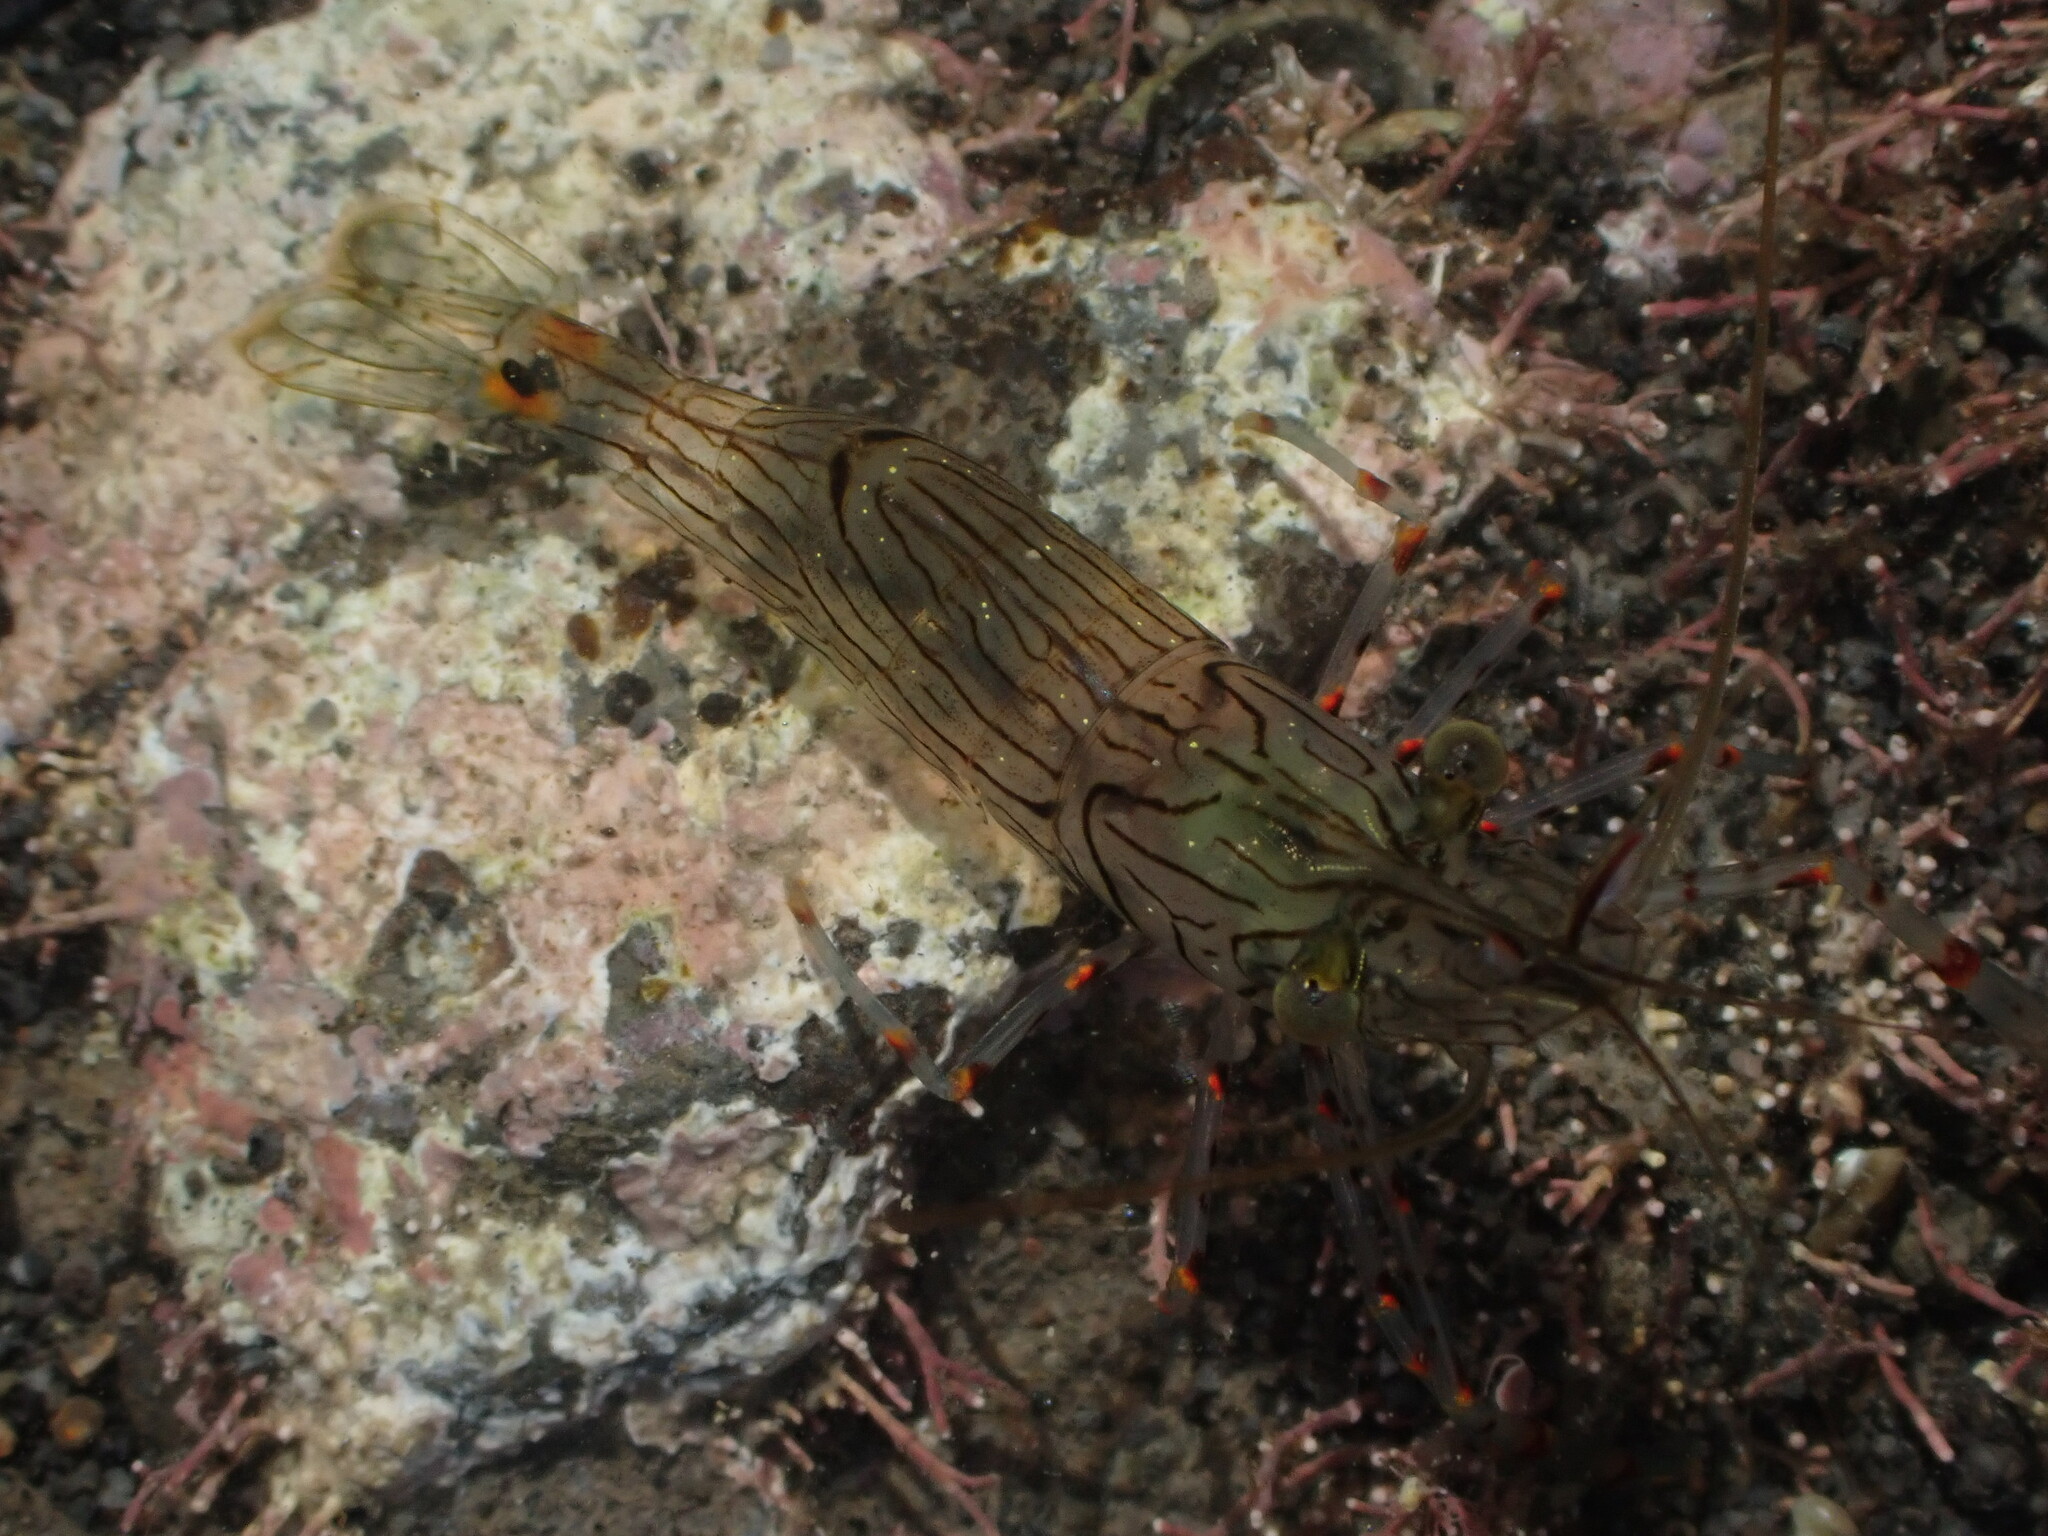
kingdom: Animalia
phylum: Arthropoda
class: Malacostraca
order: Decapoda
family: Palaemonidae
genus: Palaemon
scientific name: Palaemon affinis
